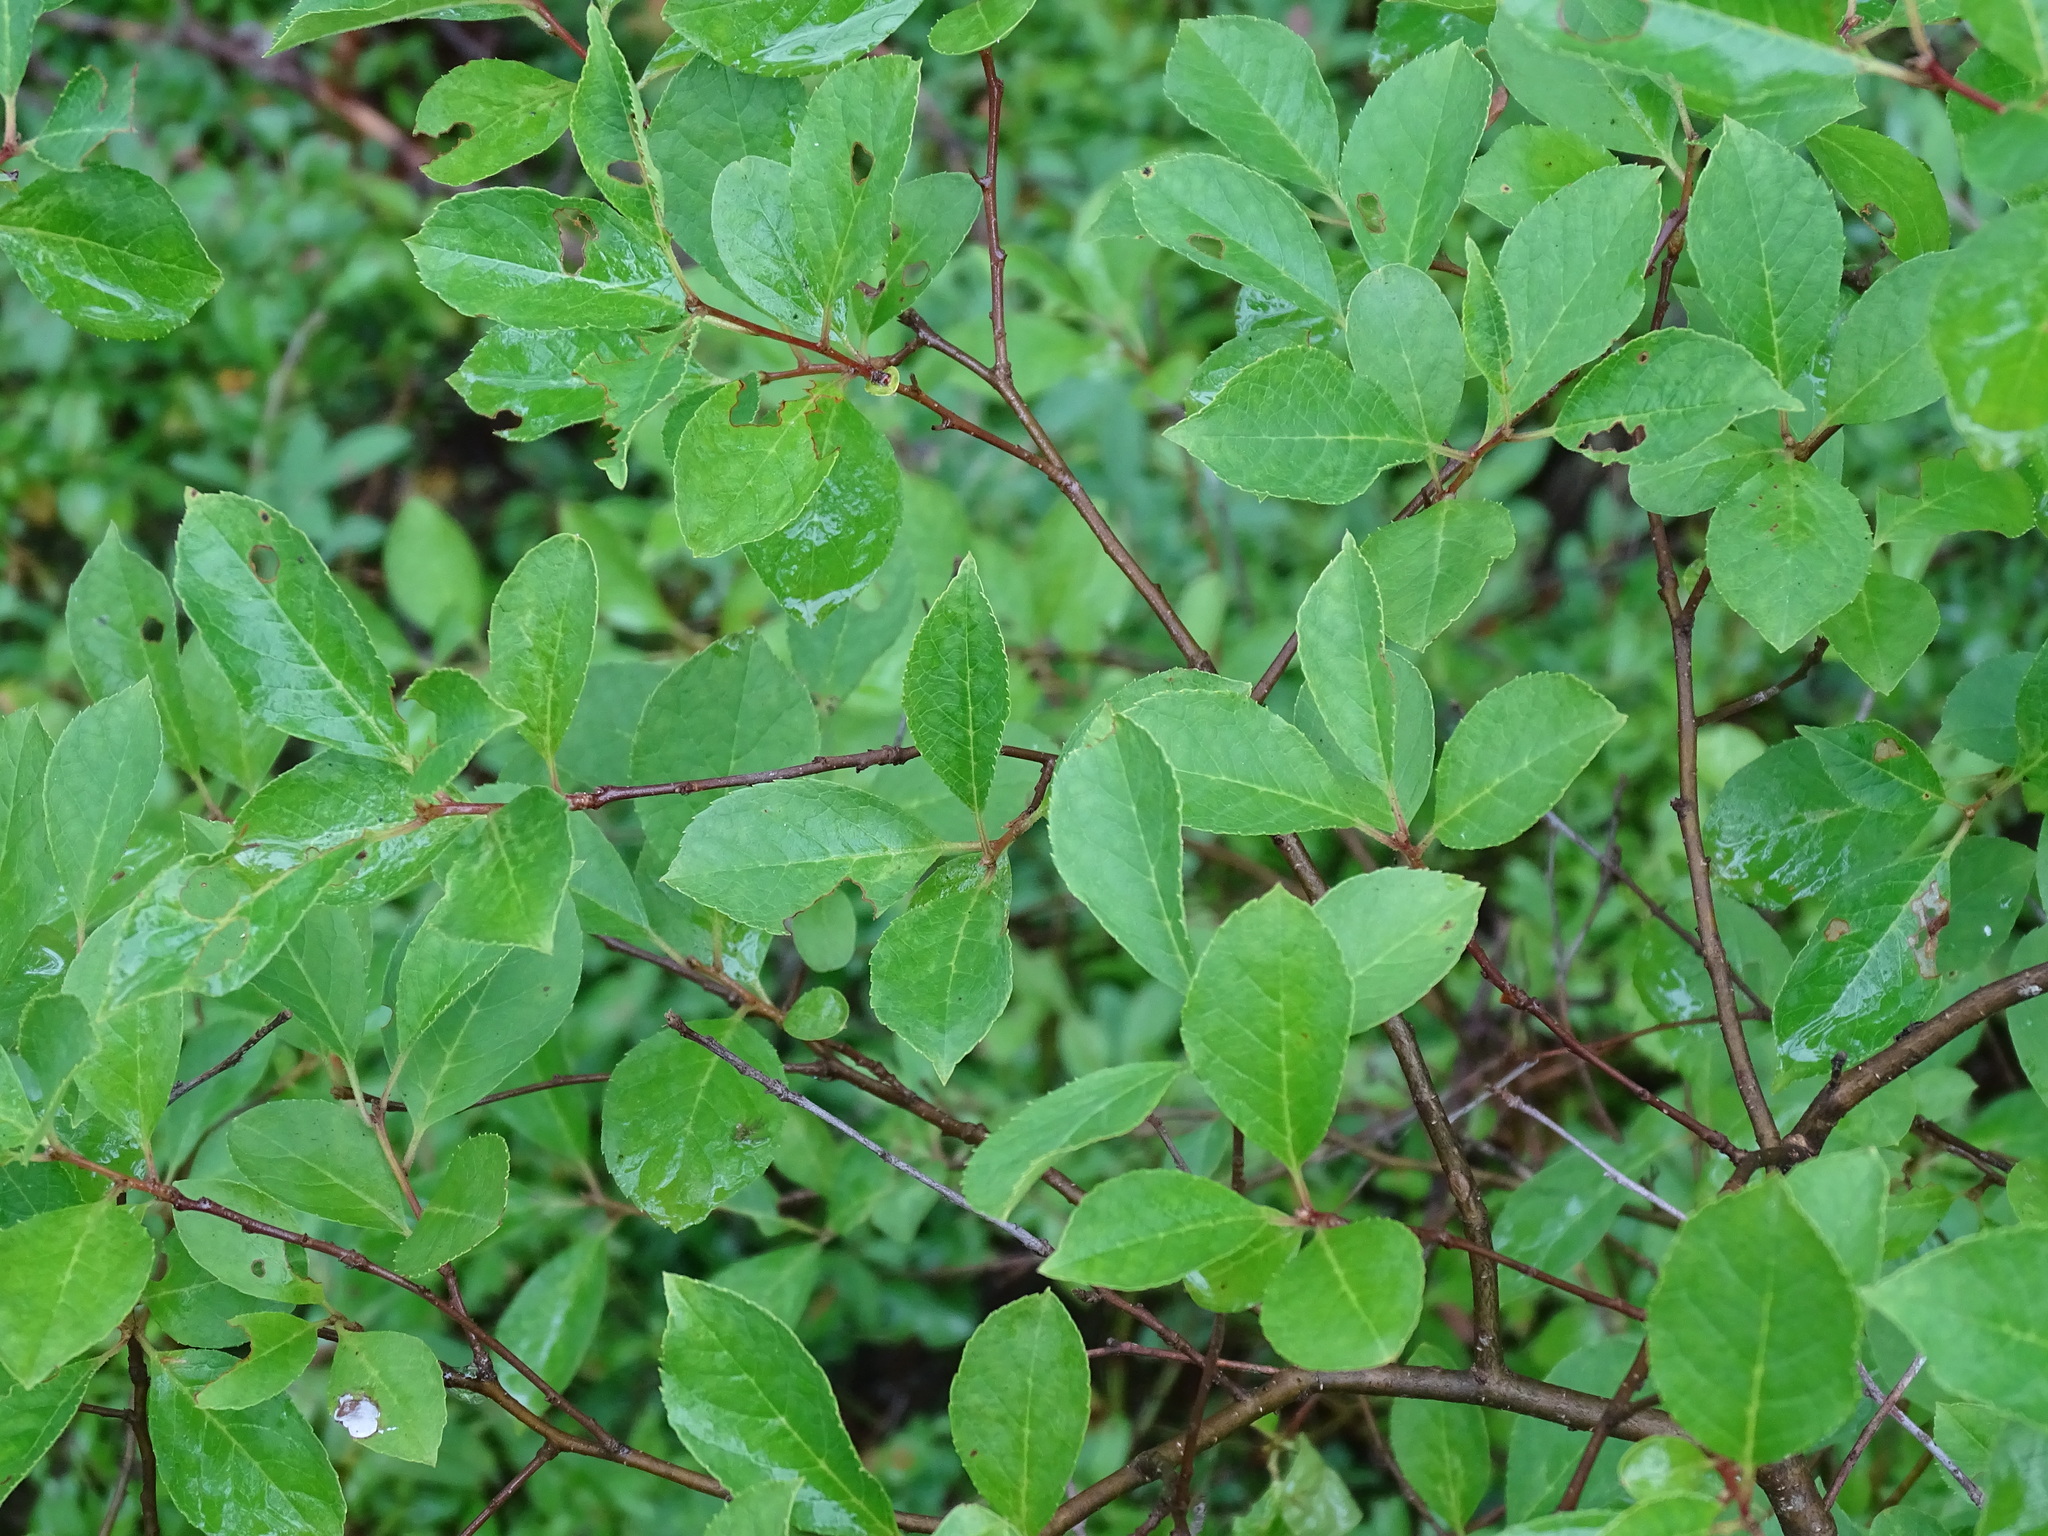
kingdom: Plantae
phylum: Tracheophyta
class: Magnoliopsida
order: Rosales
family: Rosaceae
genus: Aronia
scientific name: Aronia melanocarpa
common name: Black chokeberry
